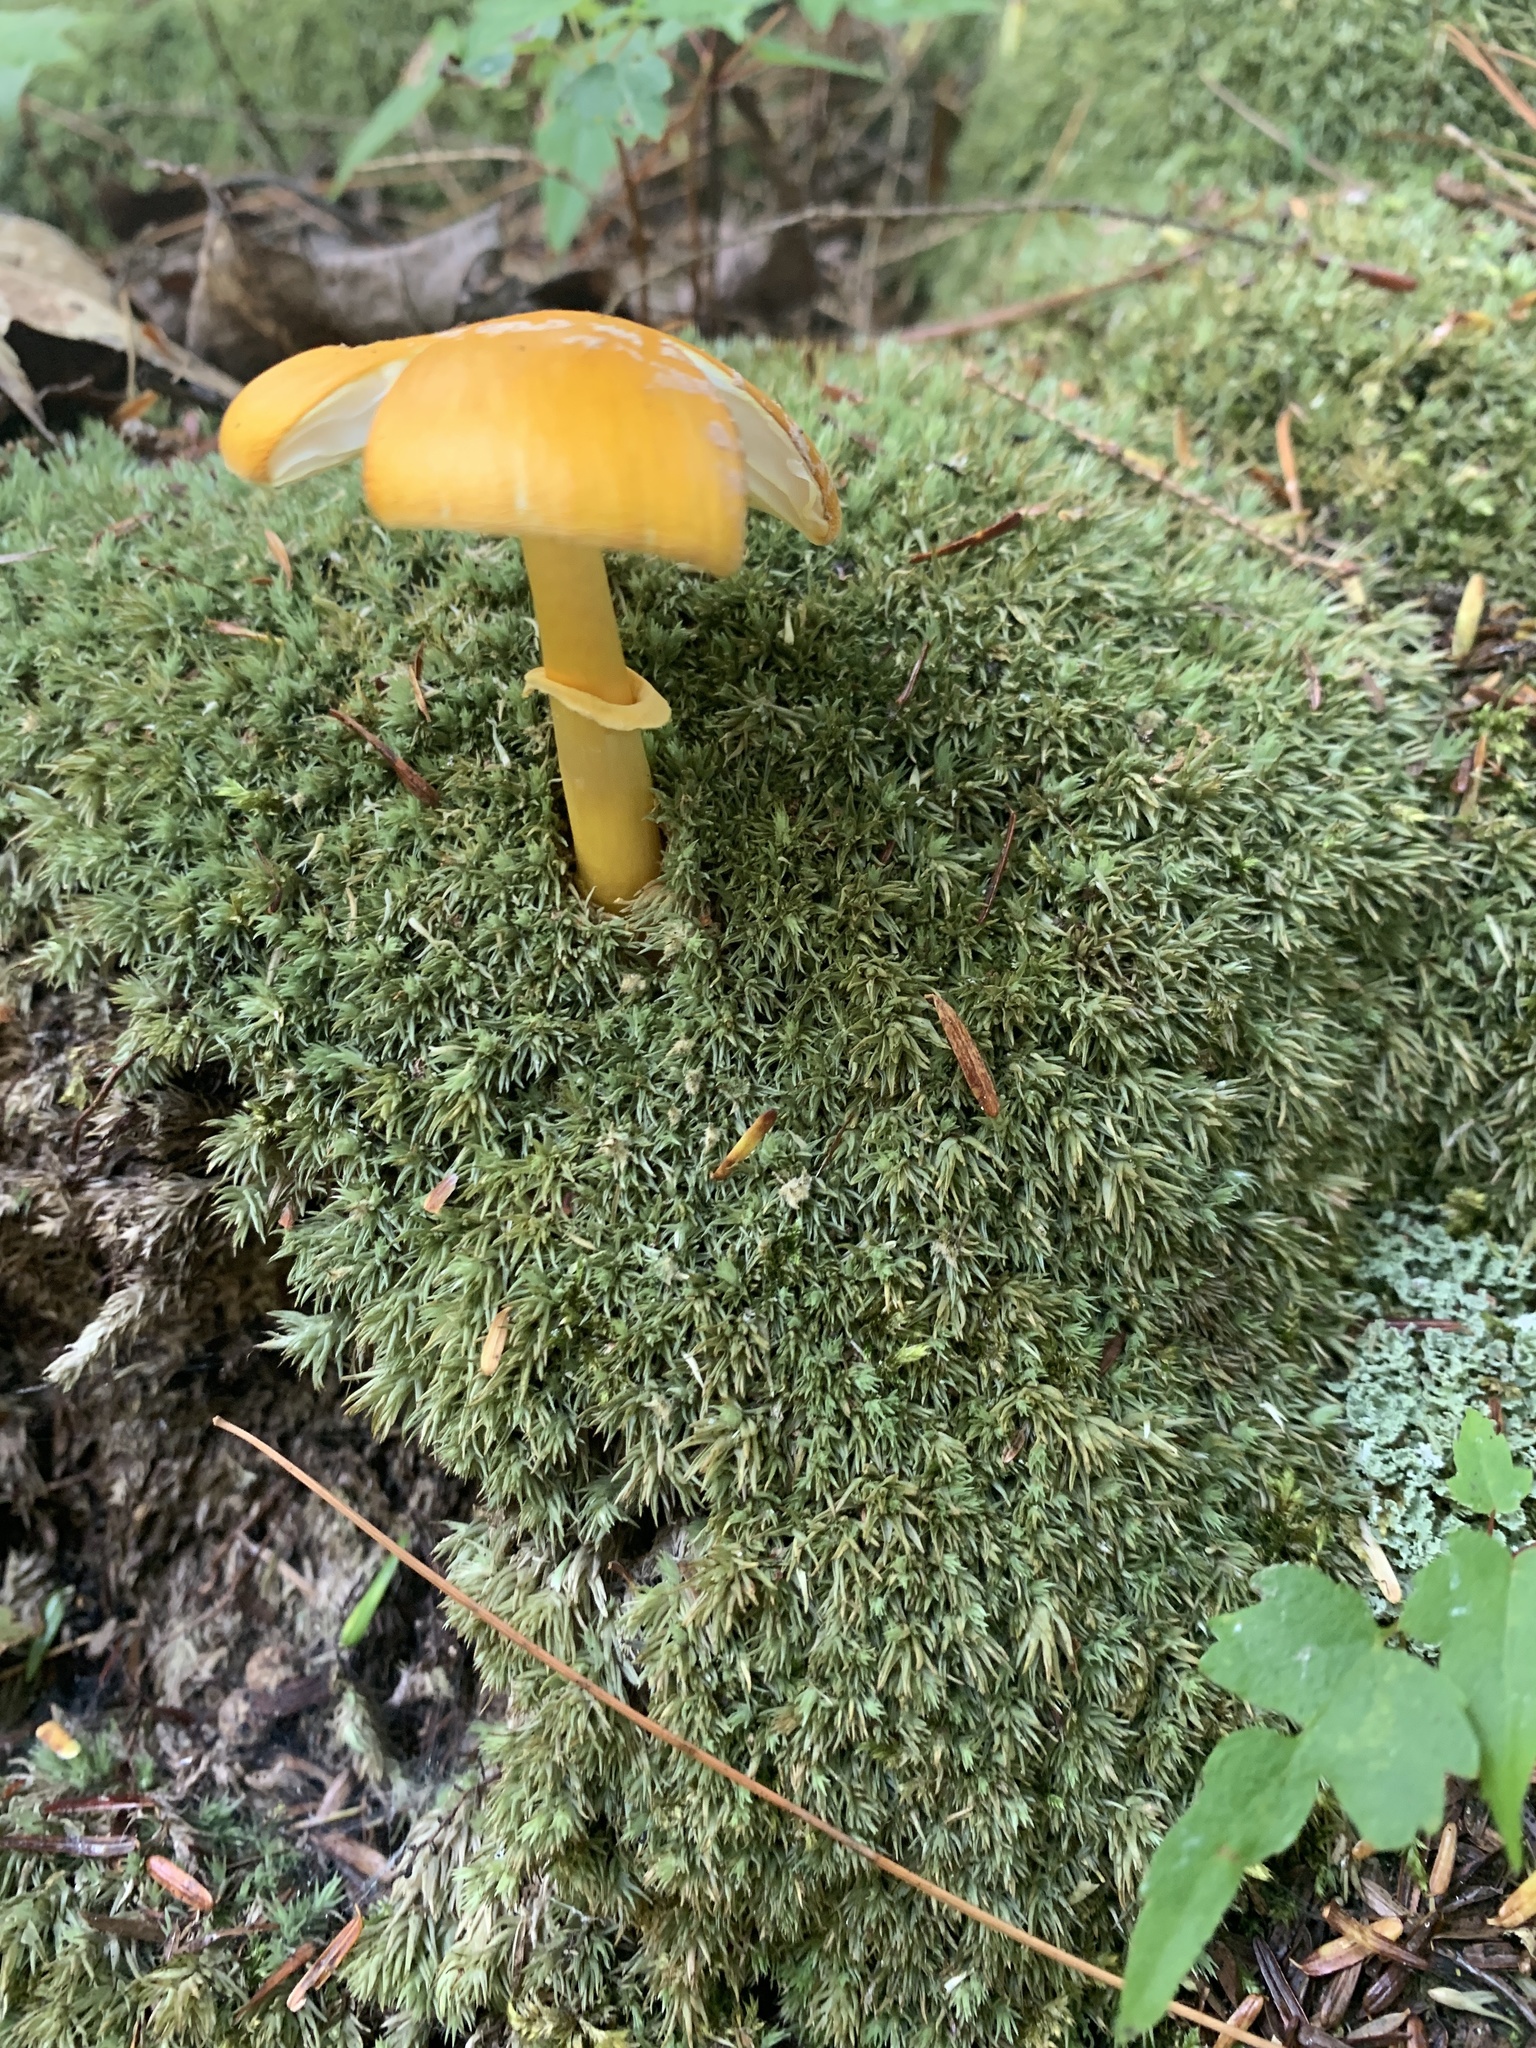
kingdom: Fungi
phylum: Basidiomycota
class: Agaricomycetes
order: Agaricales
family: Amanitaceae
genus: Amanita
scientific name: Amanita flavoconia
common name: Yellow patches
